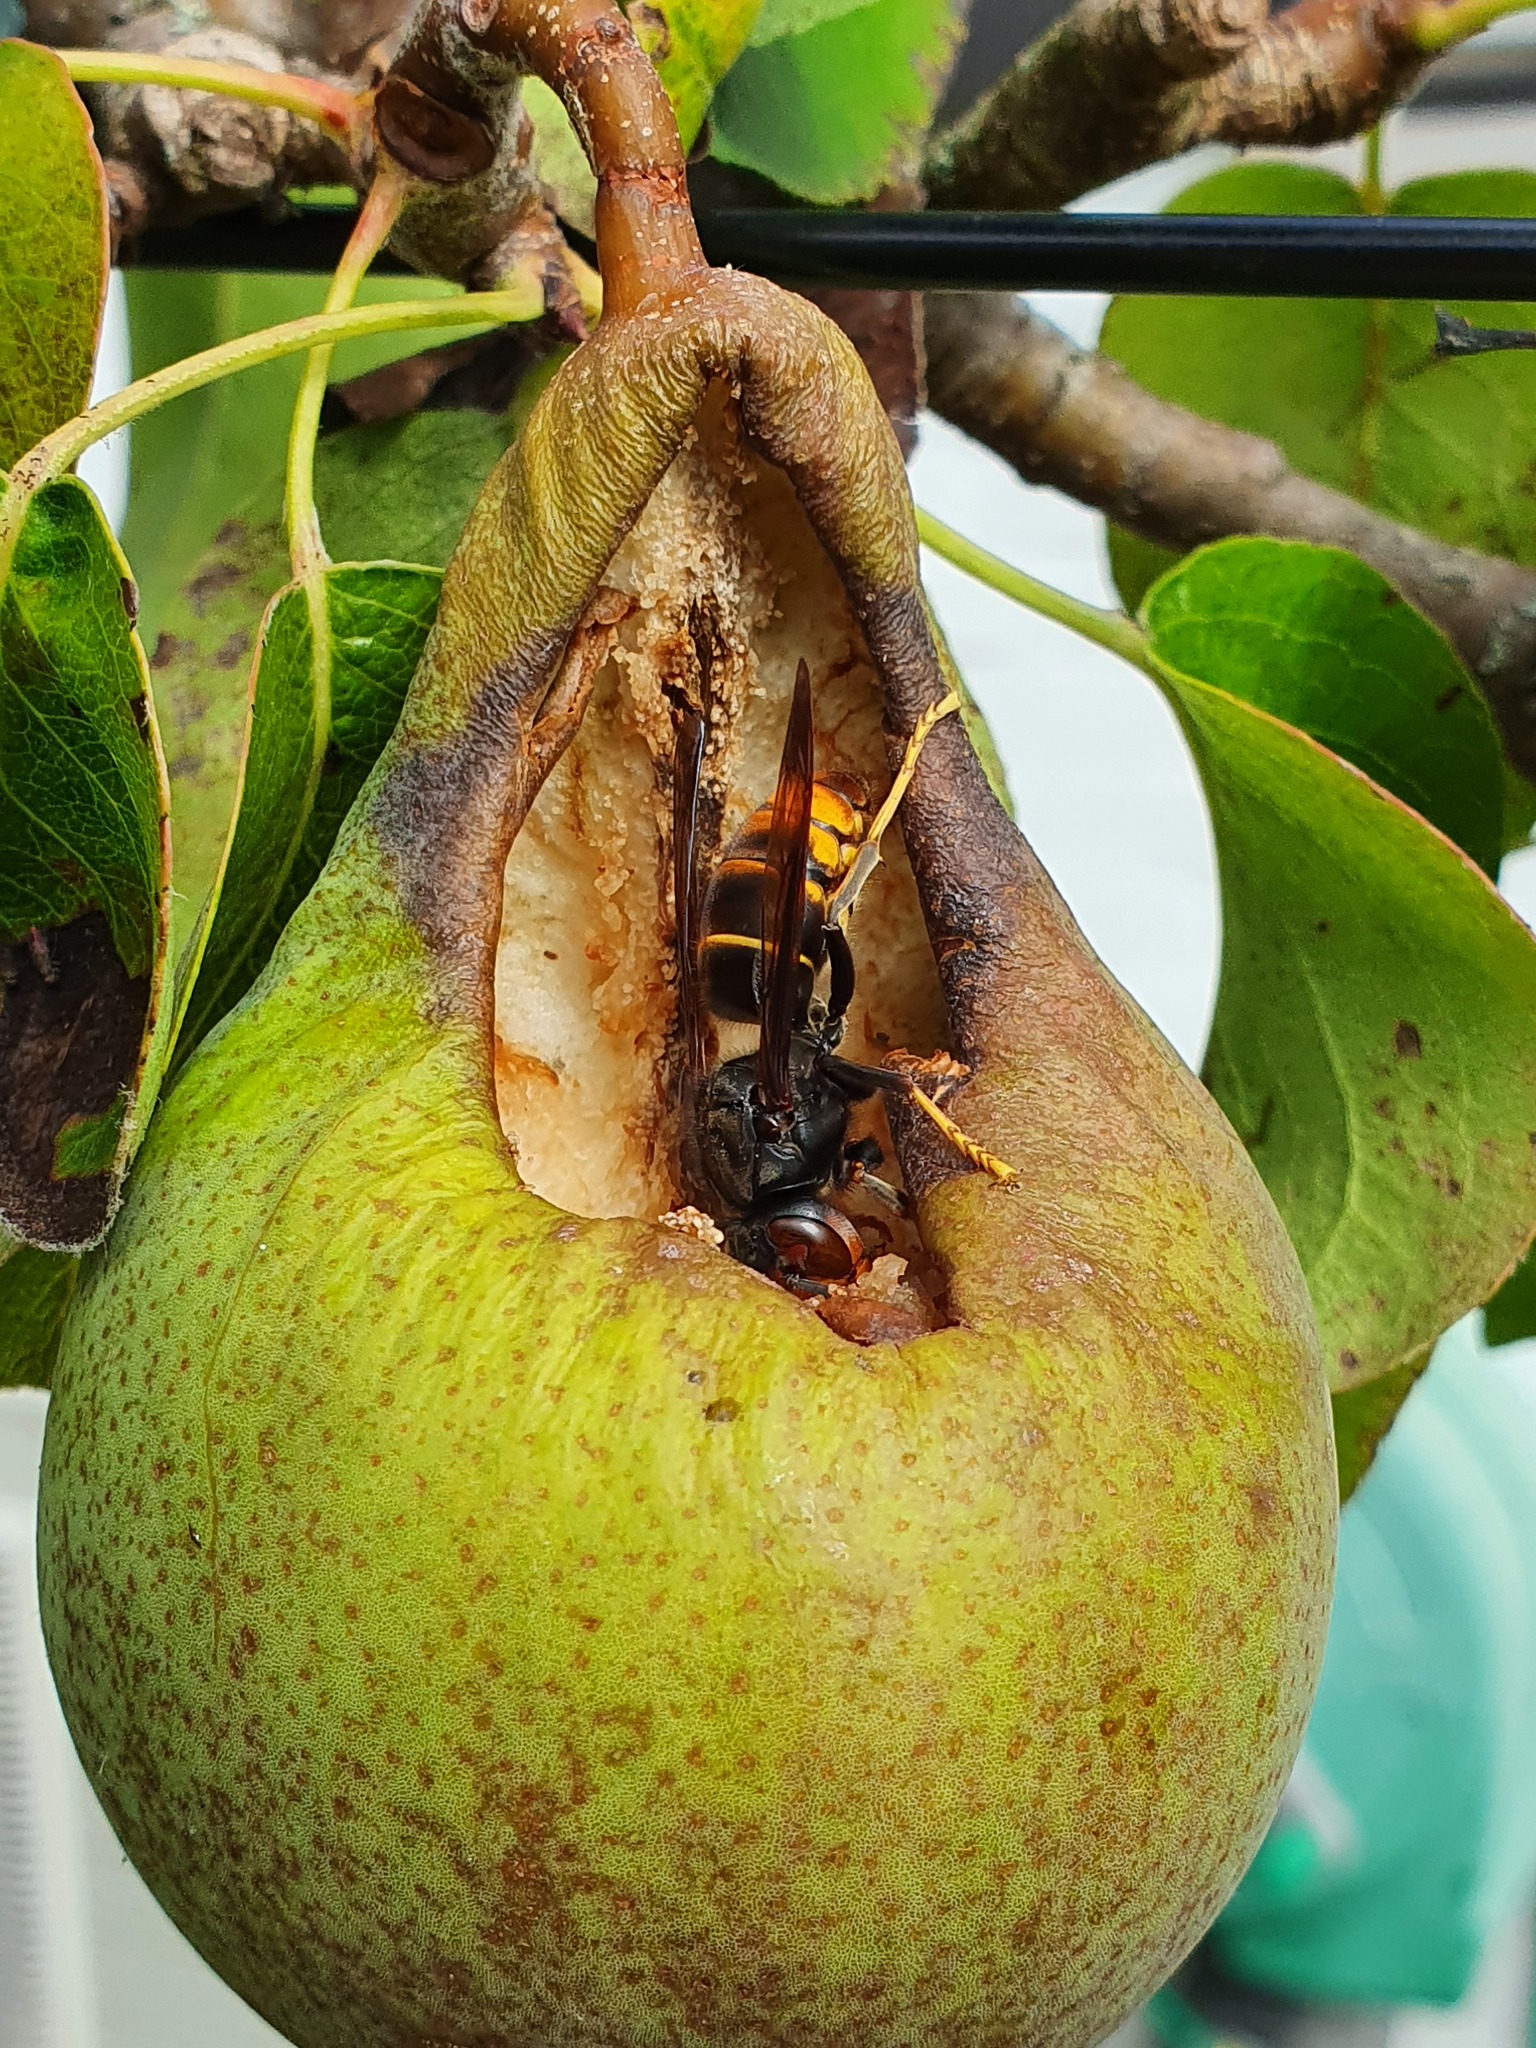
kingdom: Animalia
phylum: Arthropoda
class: Insecta
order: Hymenoptera
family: Vespidae
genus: Vespa
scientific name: Vespa velutina
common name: Asian hornet
